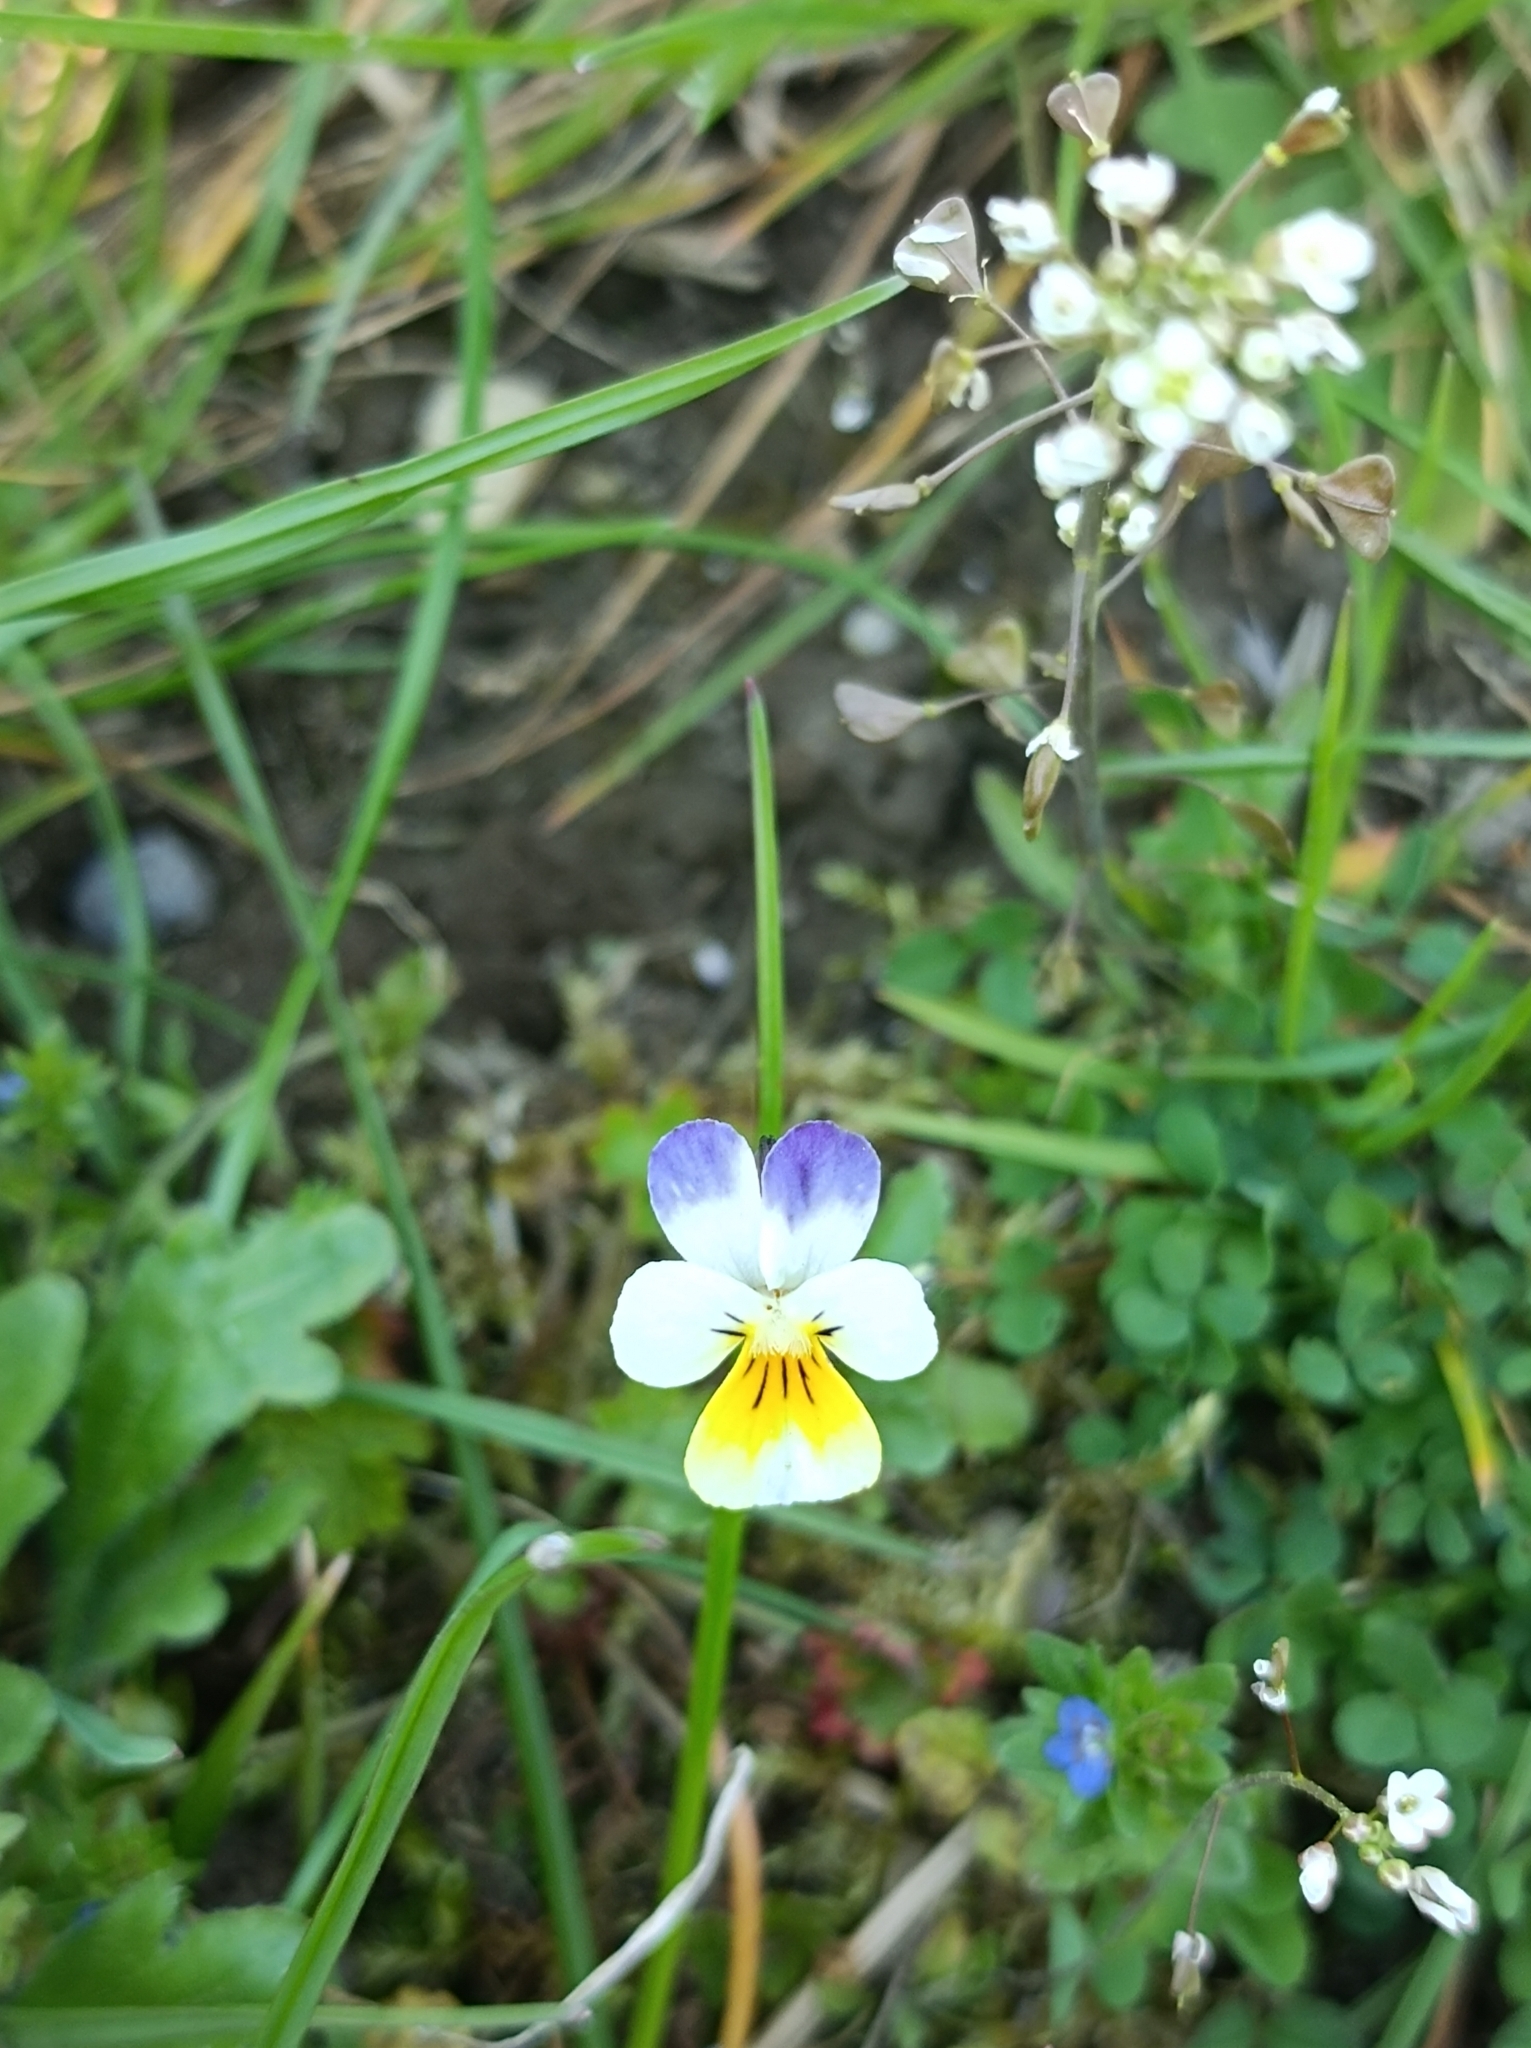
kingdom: Plantae
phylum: Tracheophyta
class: Magnoliopsida
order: Malpighiales
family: Violaceae
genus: Viola
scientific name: Viola arvensis
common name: Field pansy
